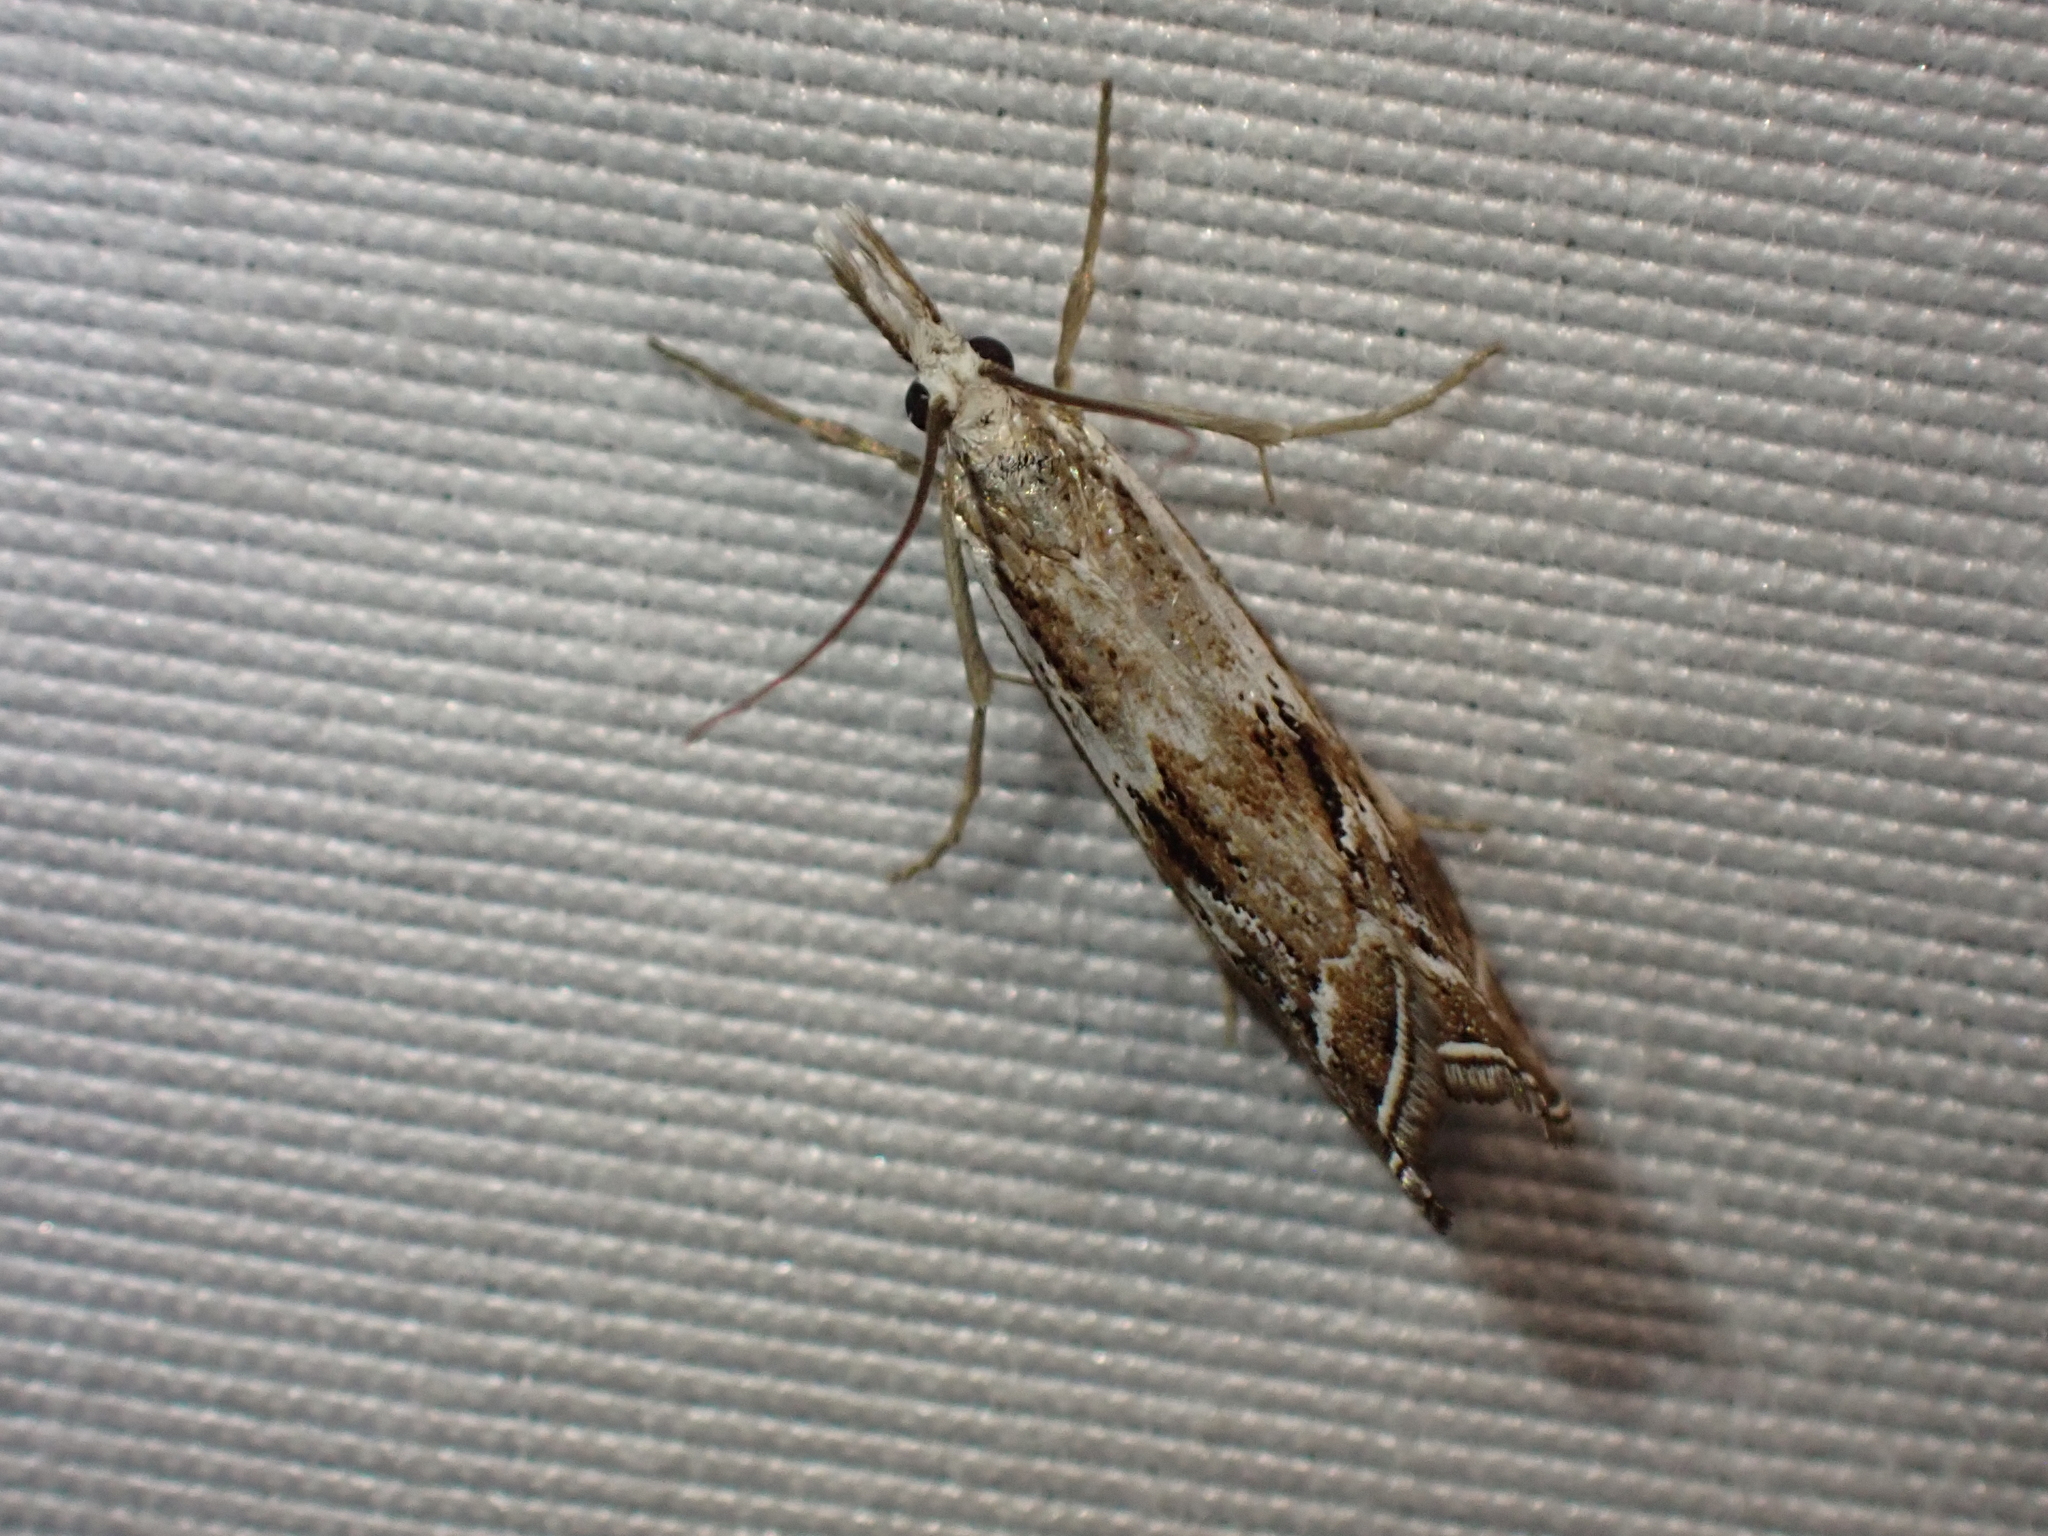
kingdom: Animalia
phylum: Arthropoda
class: Insecta
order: Lepidoptera
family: Crambidae
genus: Catoptria
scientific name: Catoptria oregonicus
